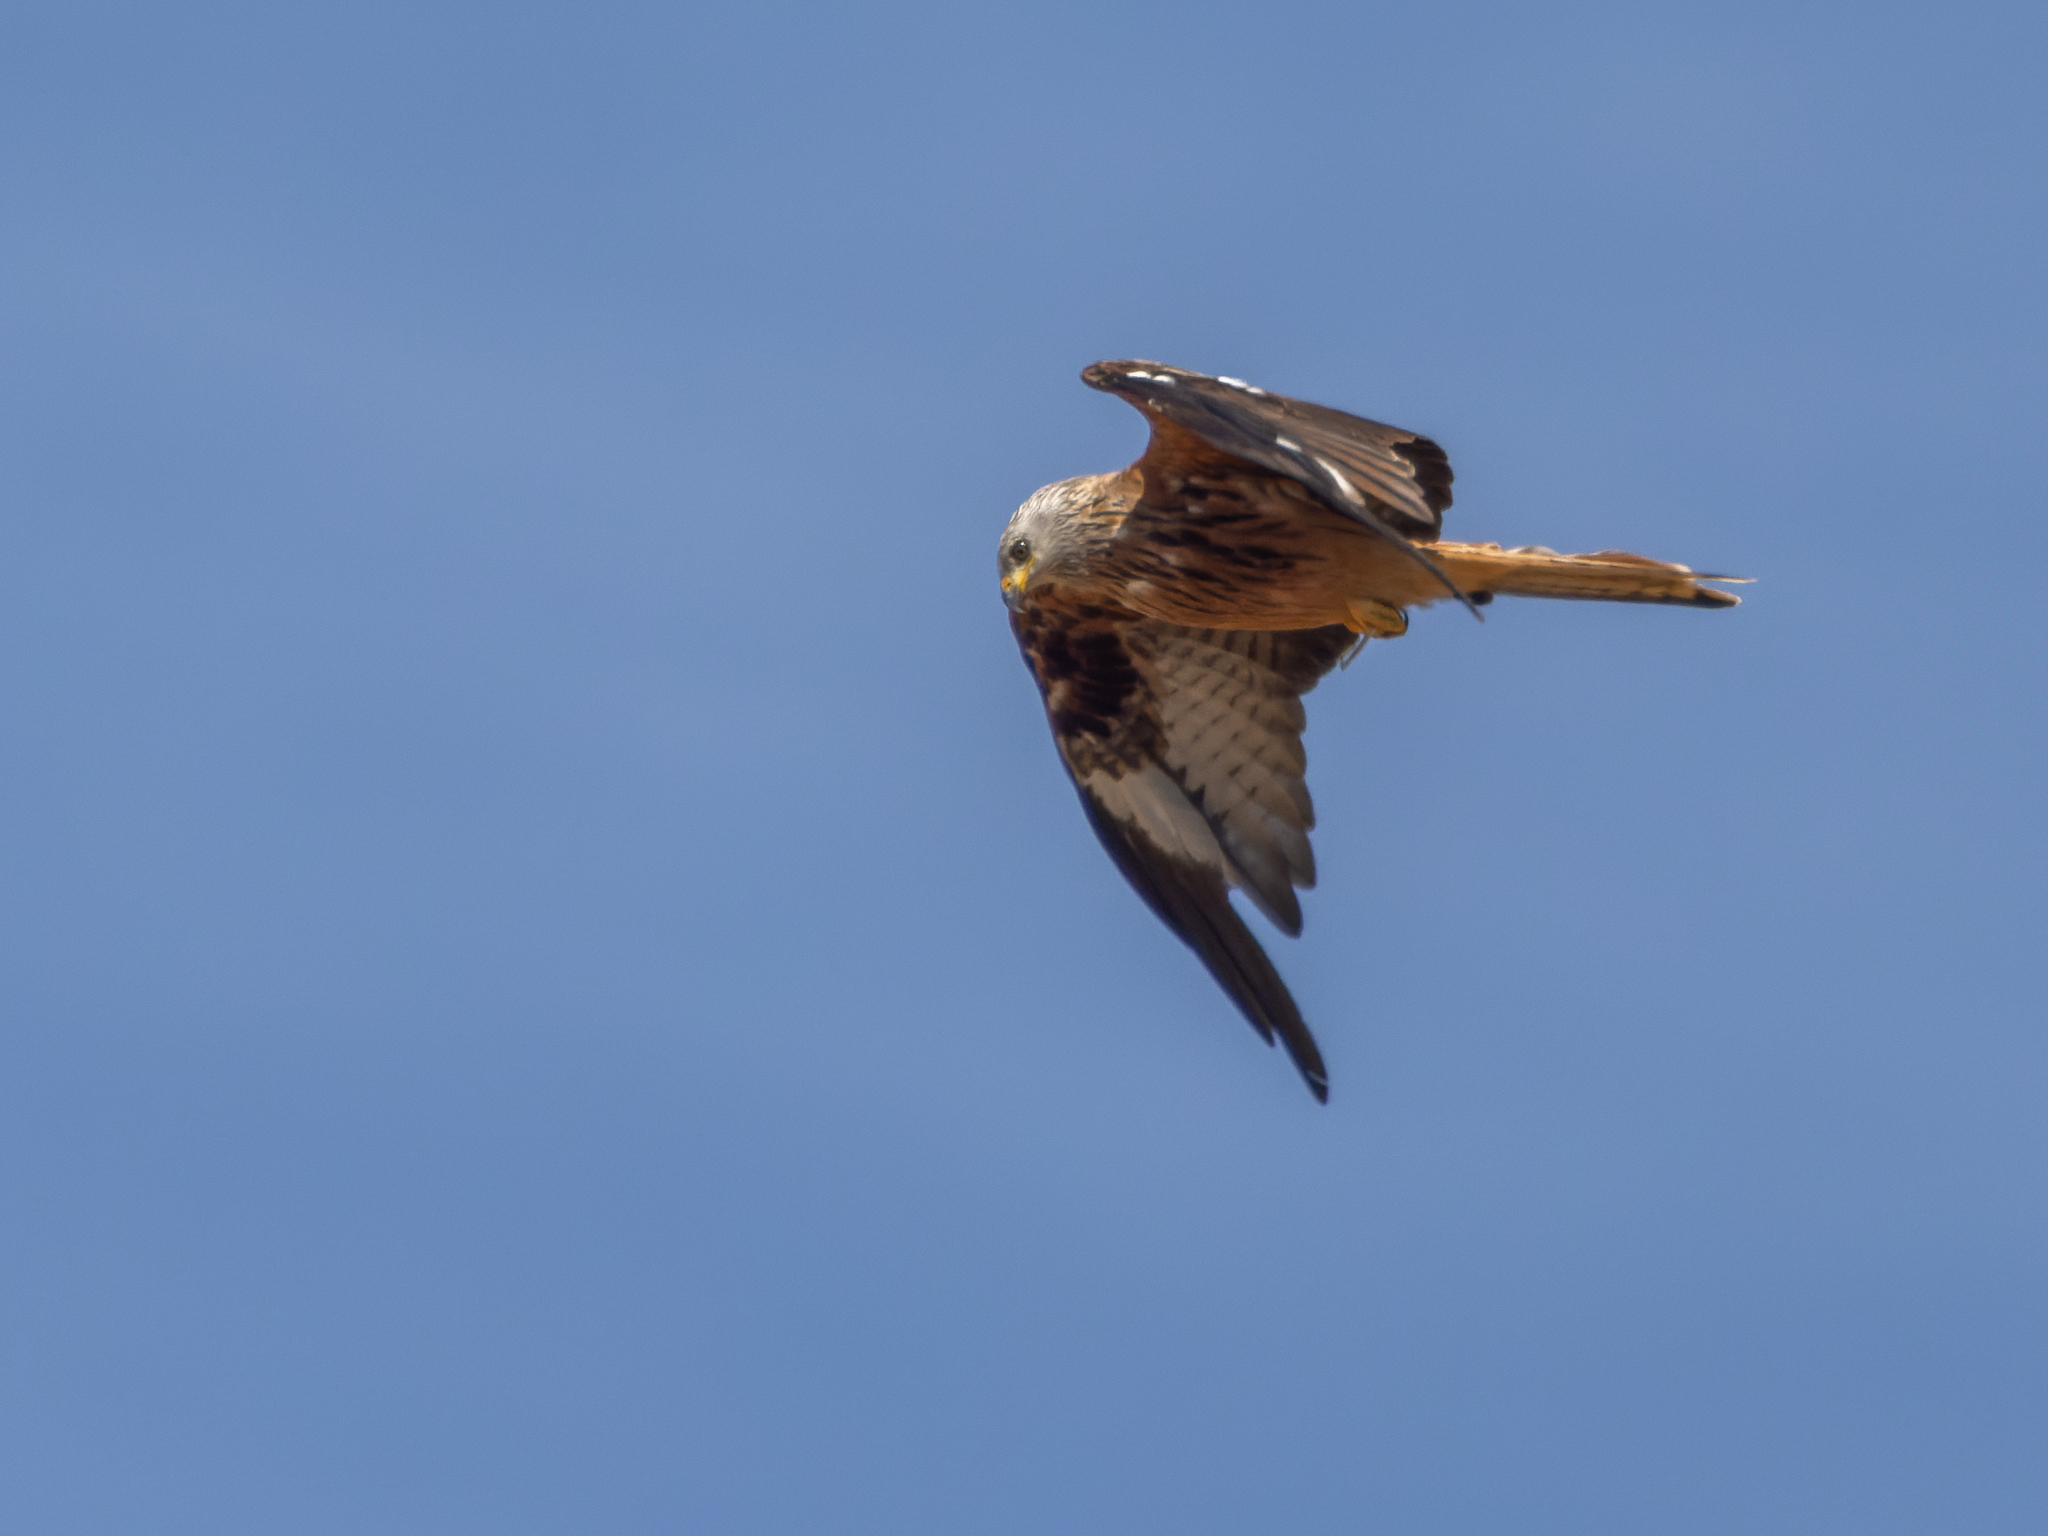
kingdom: Animalia
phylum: Chordata
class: Aves
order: Accipitriformes
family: Accipitridae
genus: Milvus
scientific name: Milvus milvus
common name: Red kite
